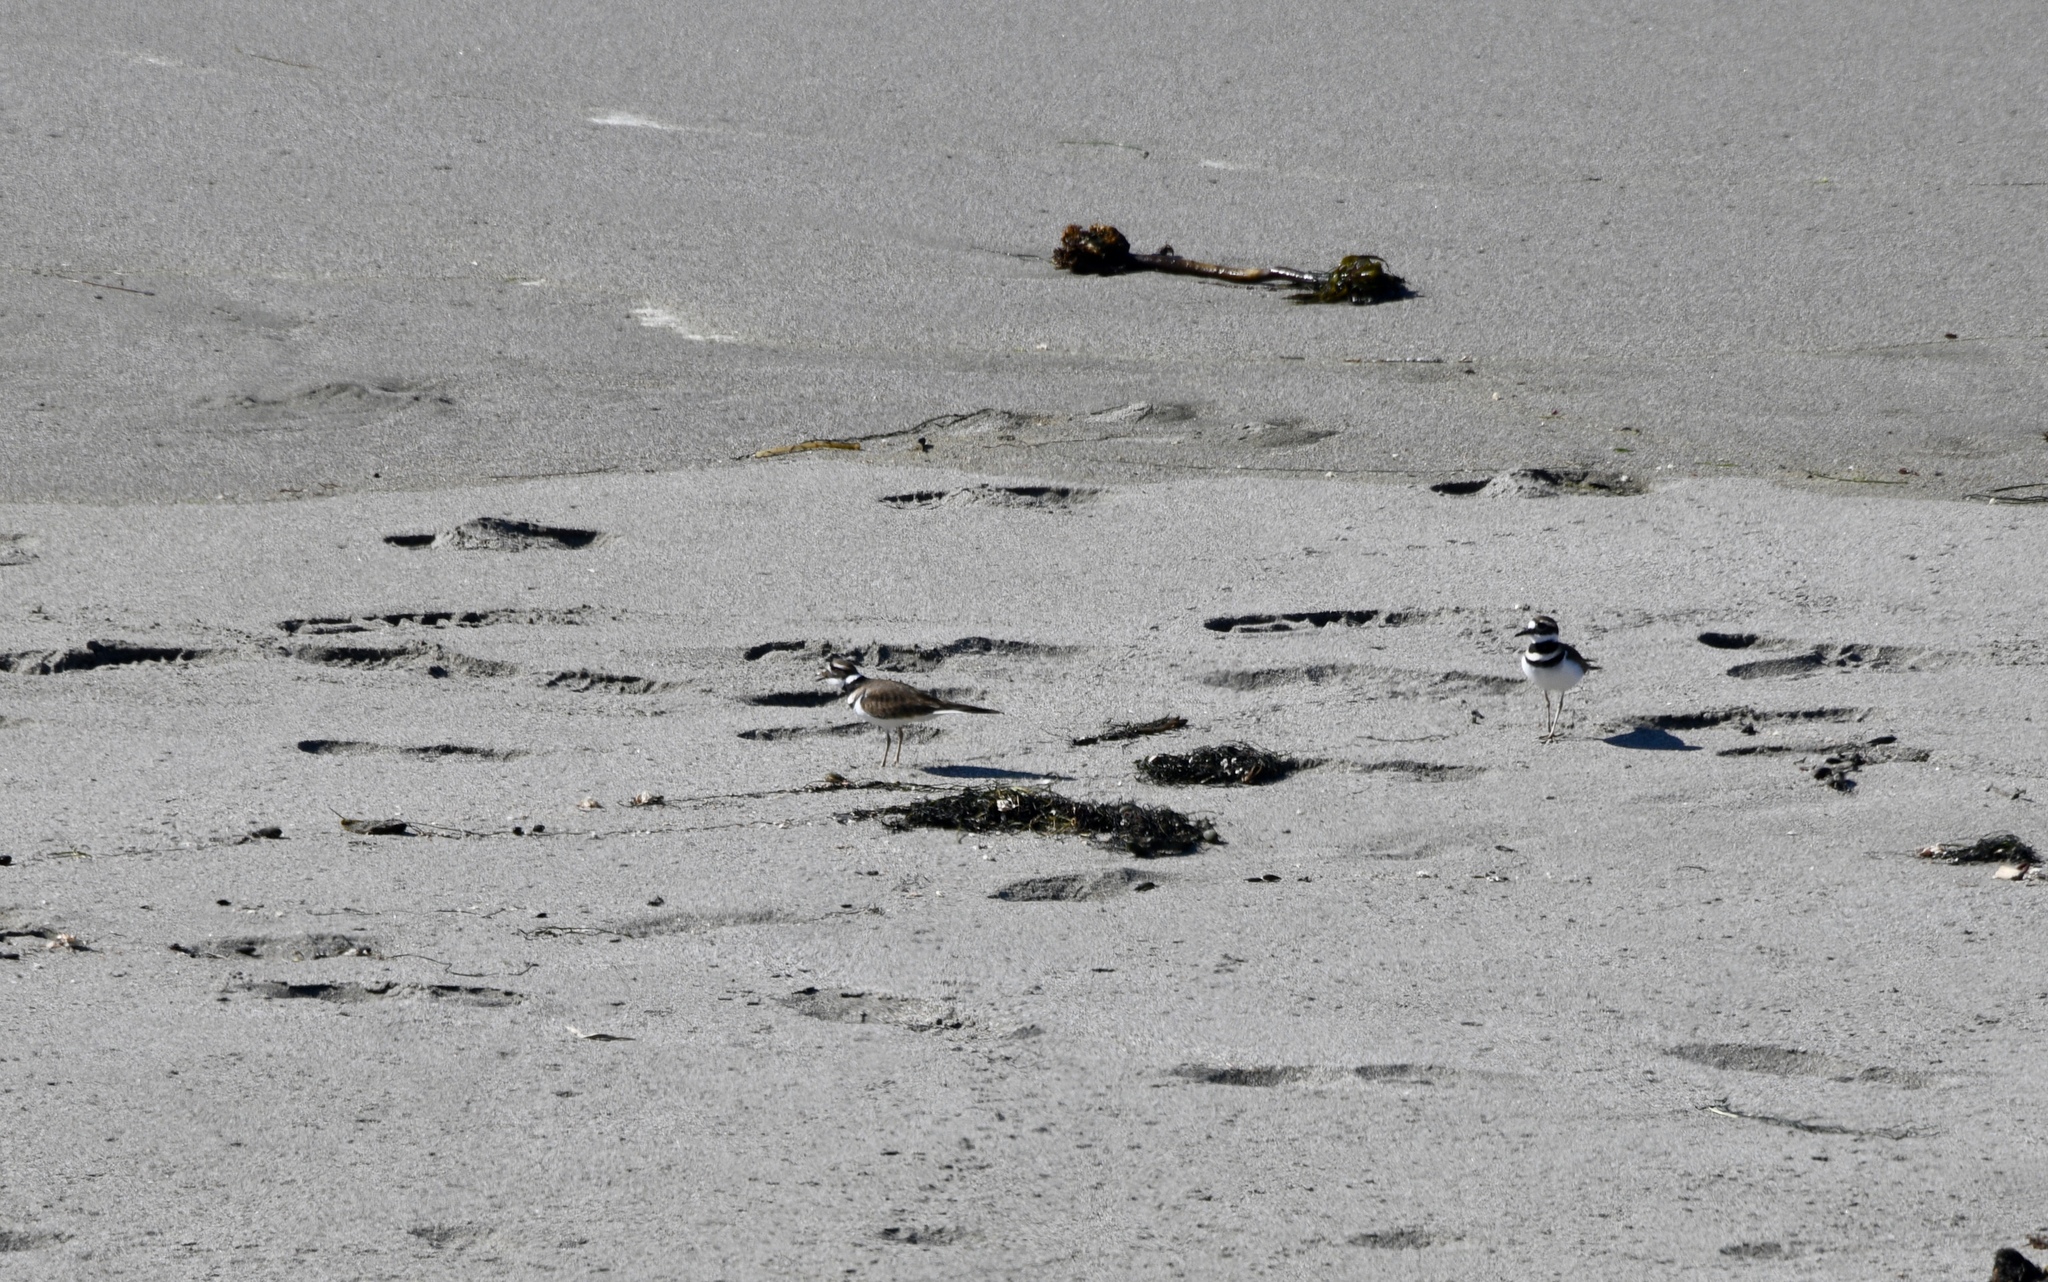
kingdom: Animalia
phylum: Chordata
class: Aves
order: Charadriiformes
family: Charadriidae
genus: Charadrius
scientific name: Charadrius vociferus
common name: Killdeer
